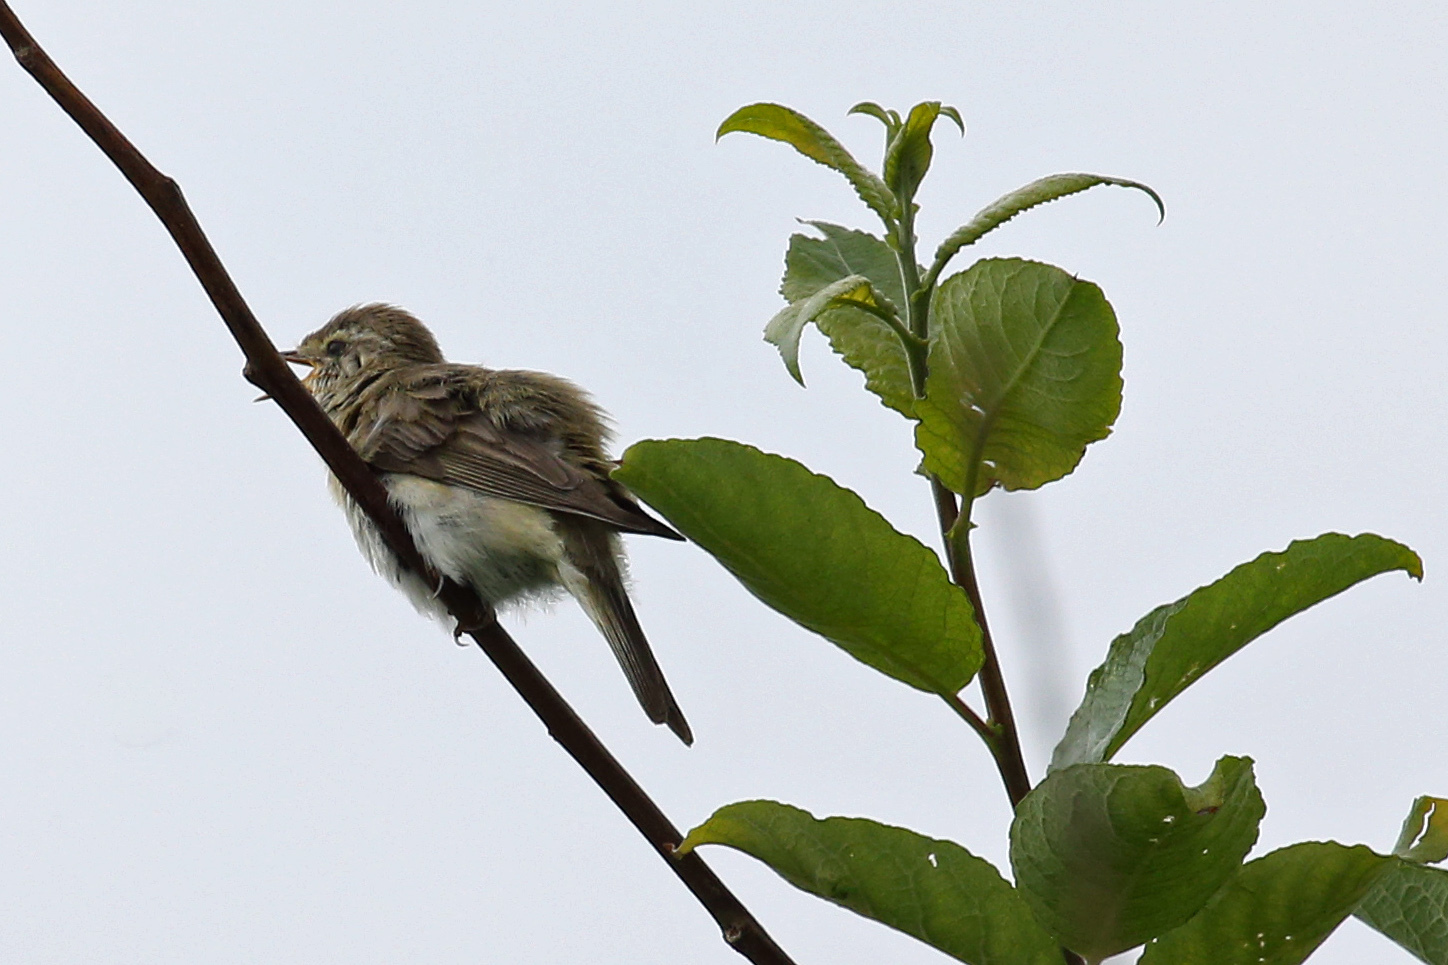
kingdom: Animalia
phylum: Chordata
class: Aves
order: Passeriformes
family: Sylviidae
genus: Sylvia
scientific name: Sylvia borin
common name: Garden warbler
